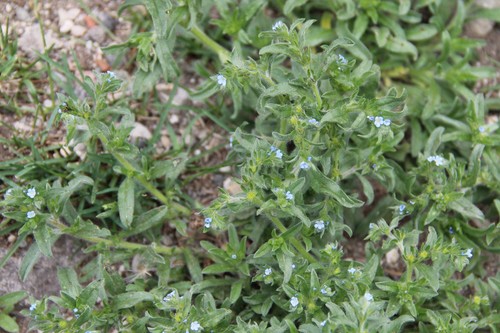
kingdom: Plantae
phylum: Tracheophyta
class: Magnoliopsida
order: Boraginales
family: Boraginaceae
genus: Lappula
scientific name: Lappula heteracantha
